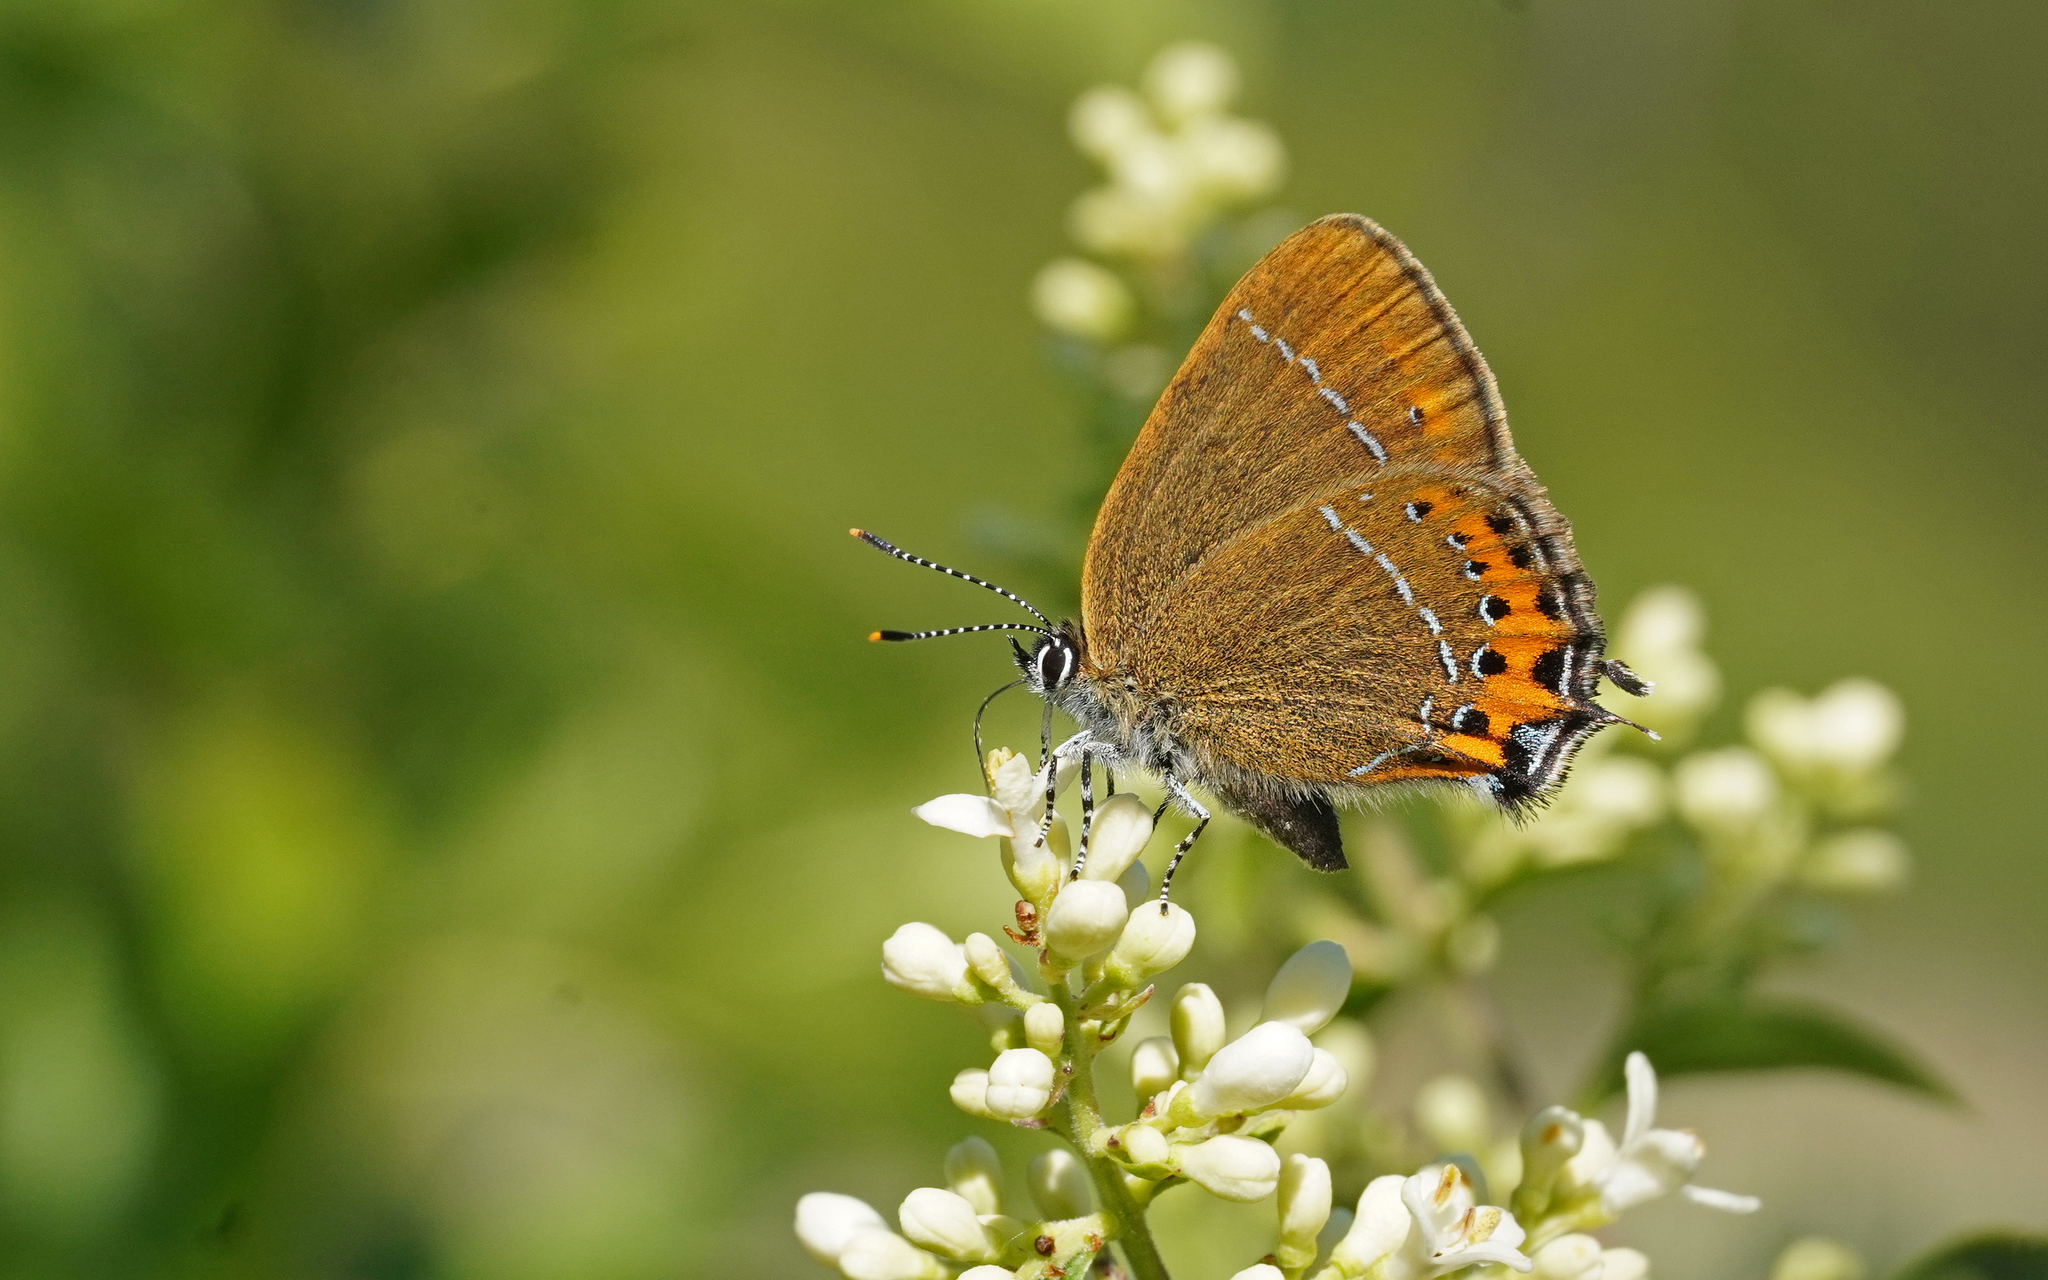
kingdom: Animalia
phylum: Arthropoda
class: Insecta
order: Lepidoptera
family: Lycaenidae
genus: Fixsenia
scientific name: Fixsenia pruni
